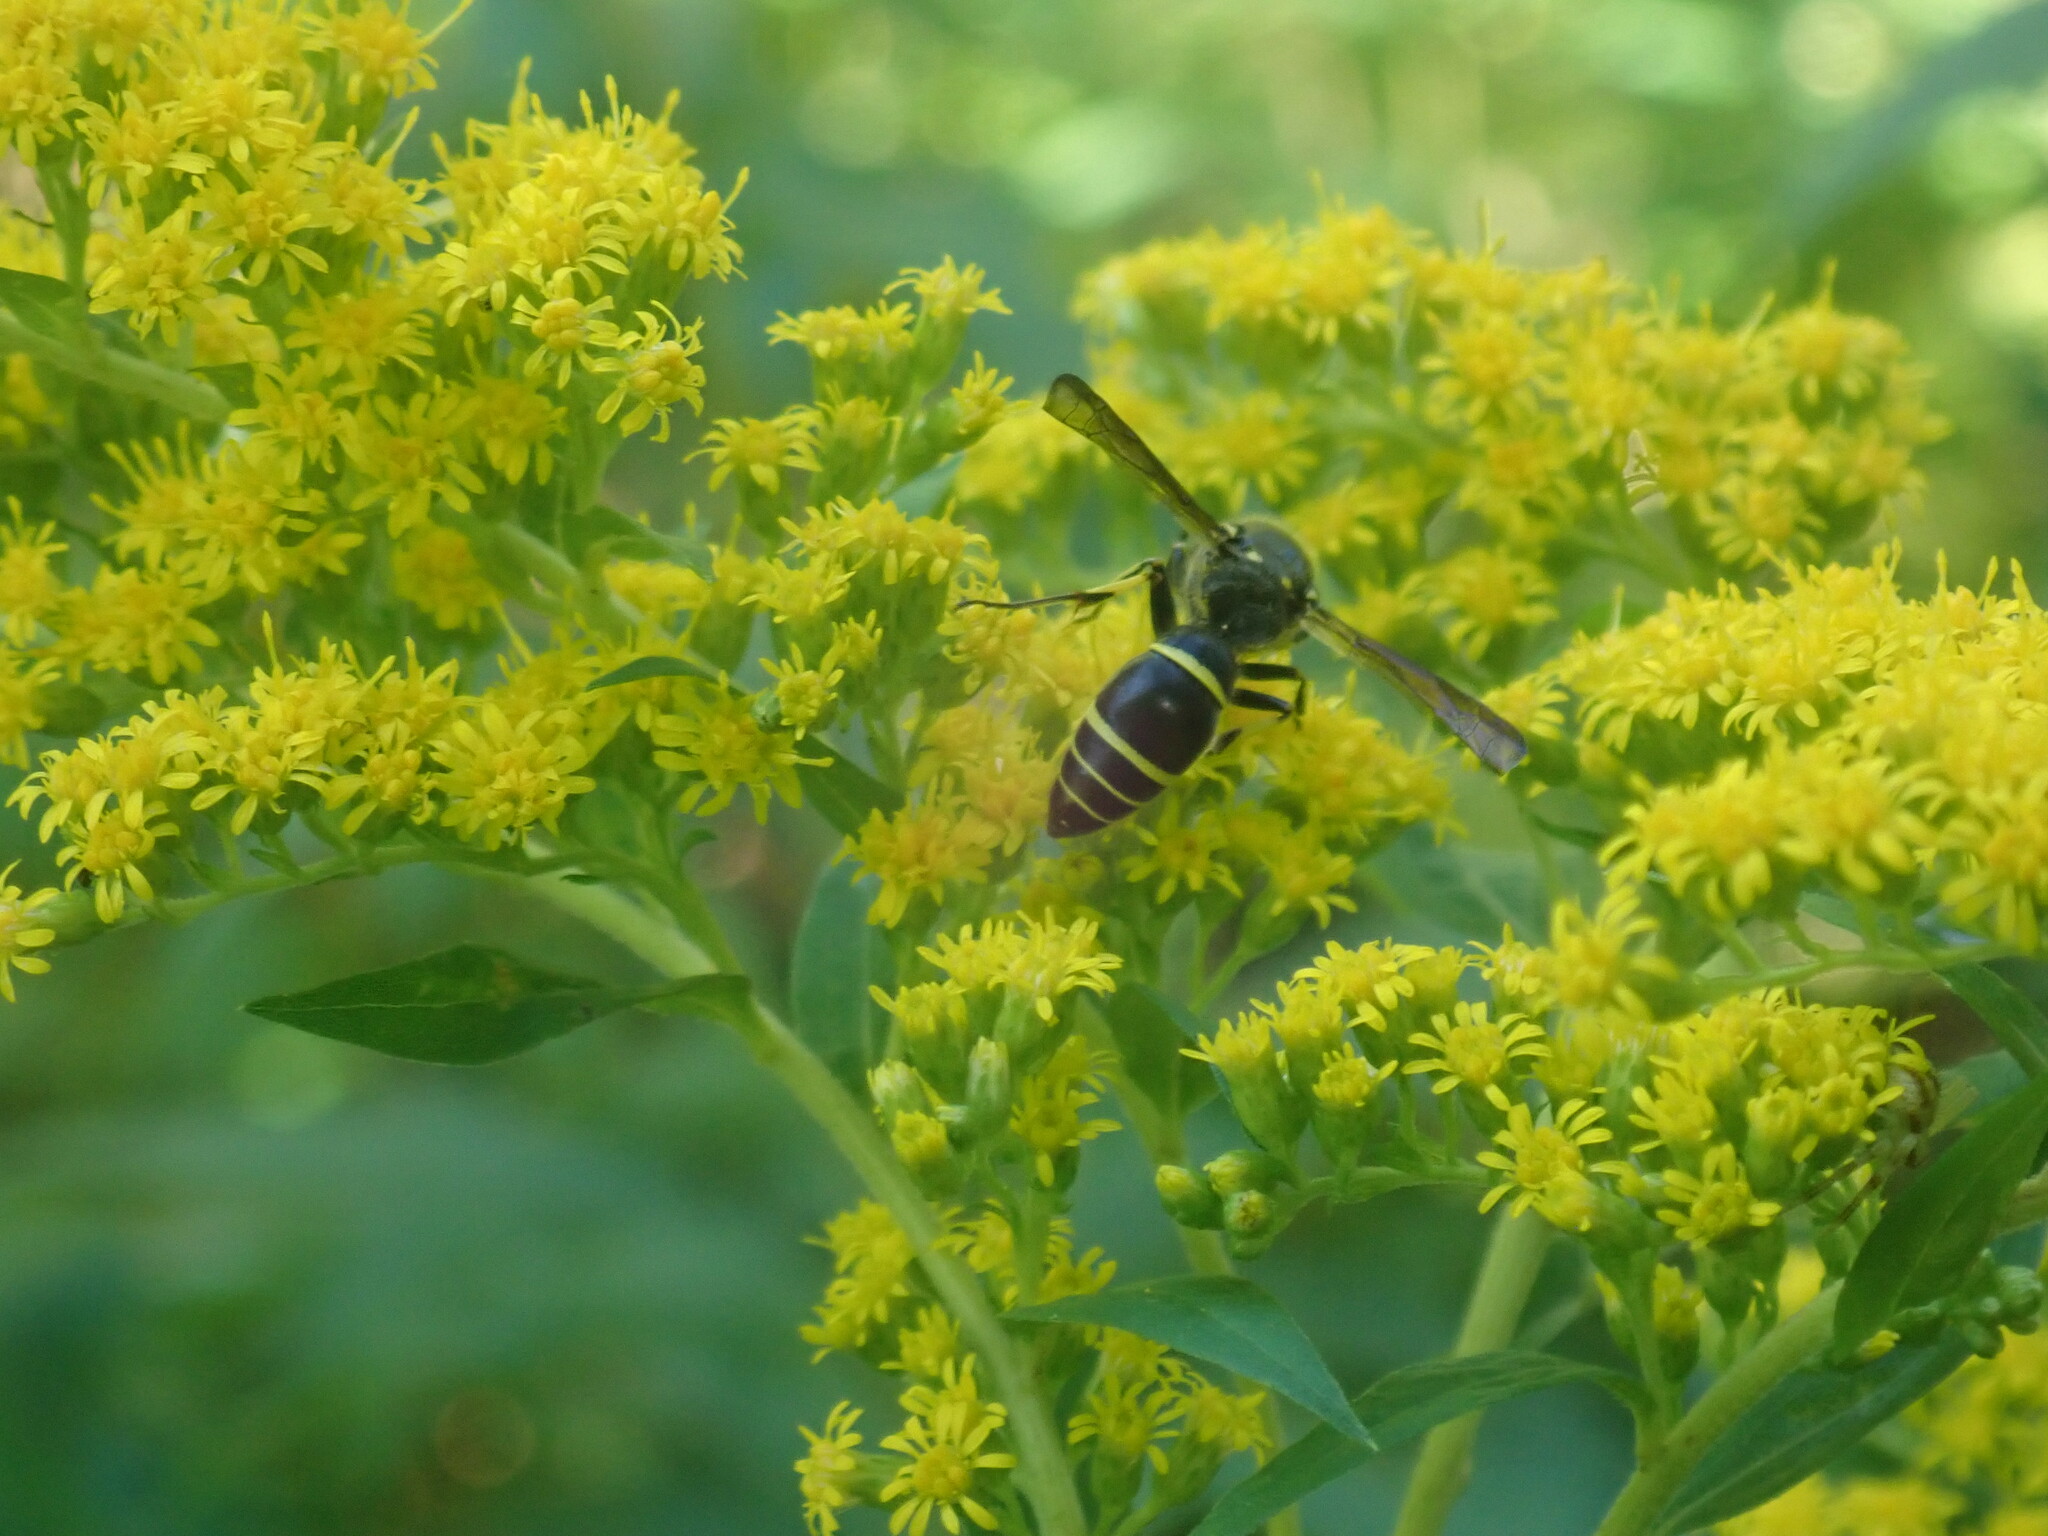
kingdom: Animalia
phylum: Arthropoda
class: Insecta
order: Hymenoptera
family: Vespidae
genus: Ancistrocerus
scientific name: Ancistrocerus
